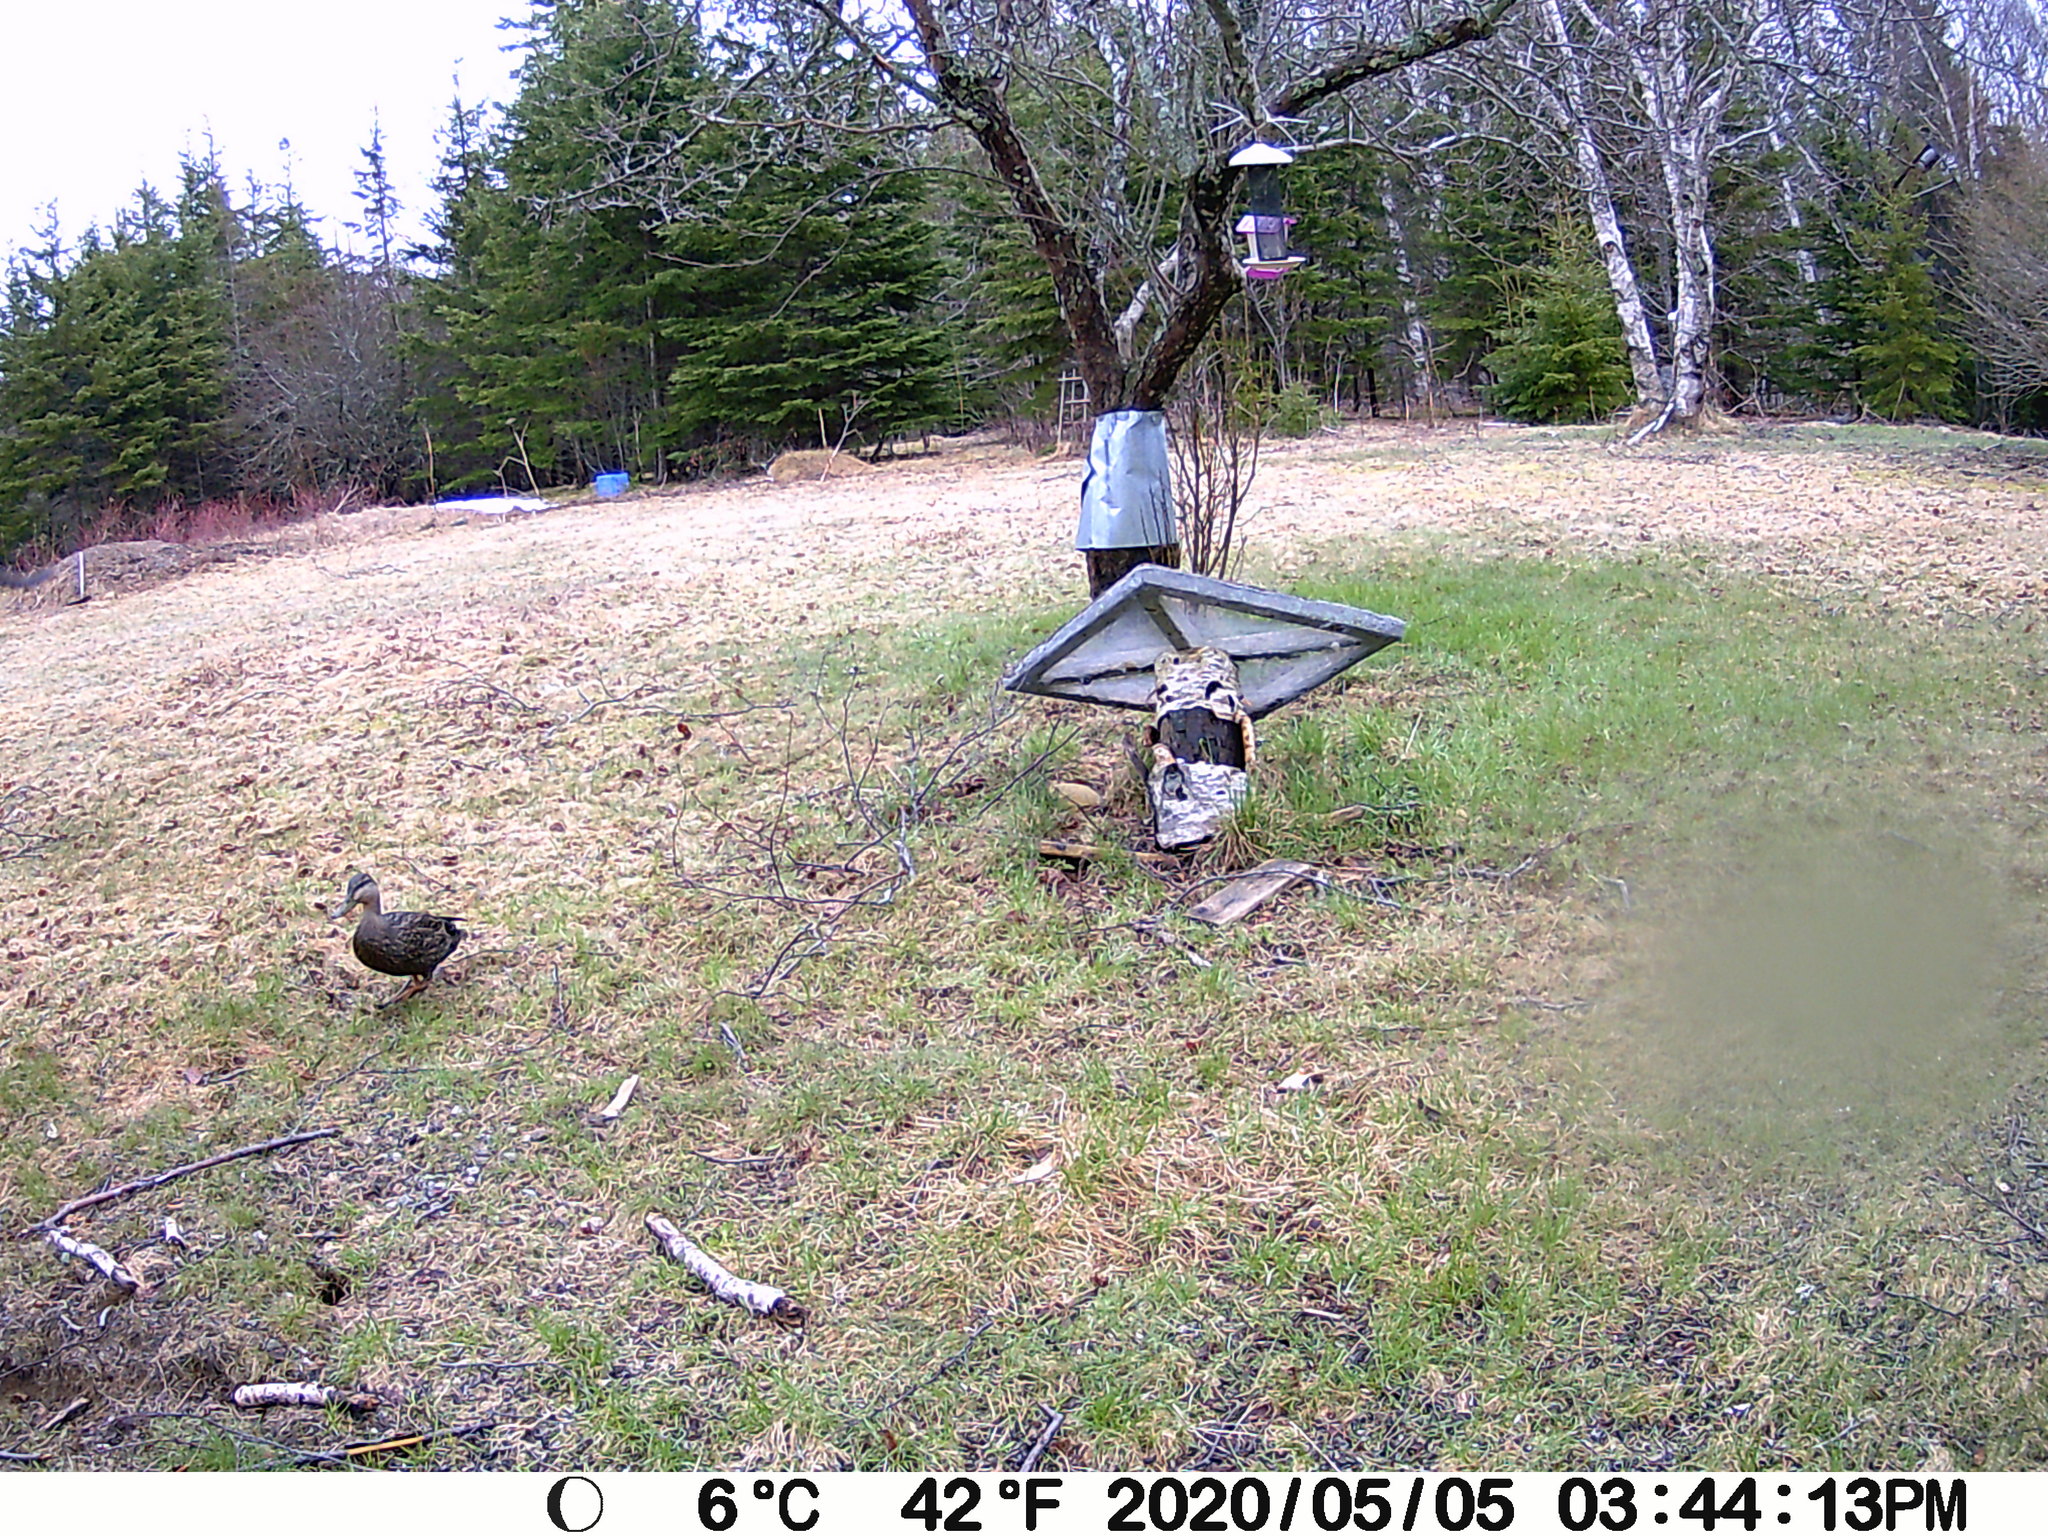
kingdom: Animalia
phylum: Chordata
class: Aves
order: Anseriformes
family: Anatidae
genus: Anas
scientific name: Anas rubripes
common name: American black duck
